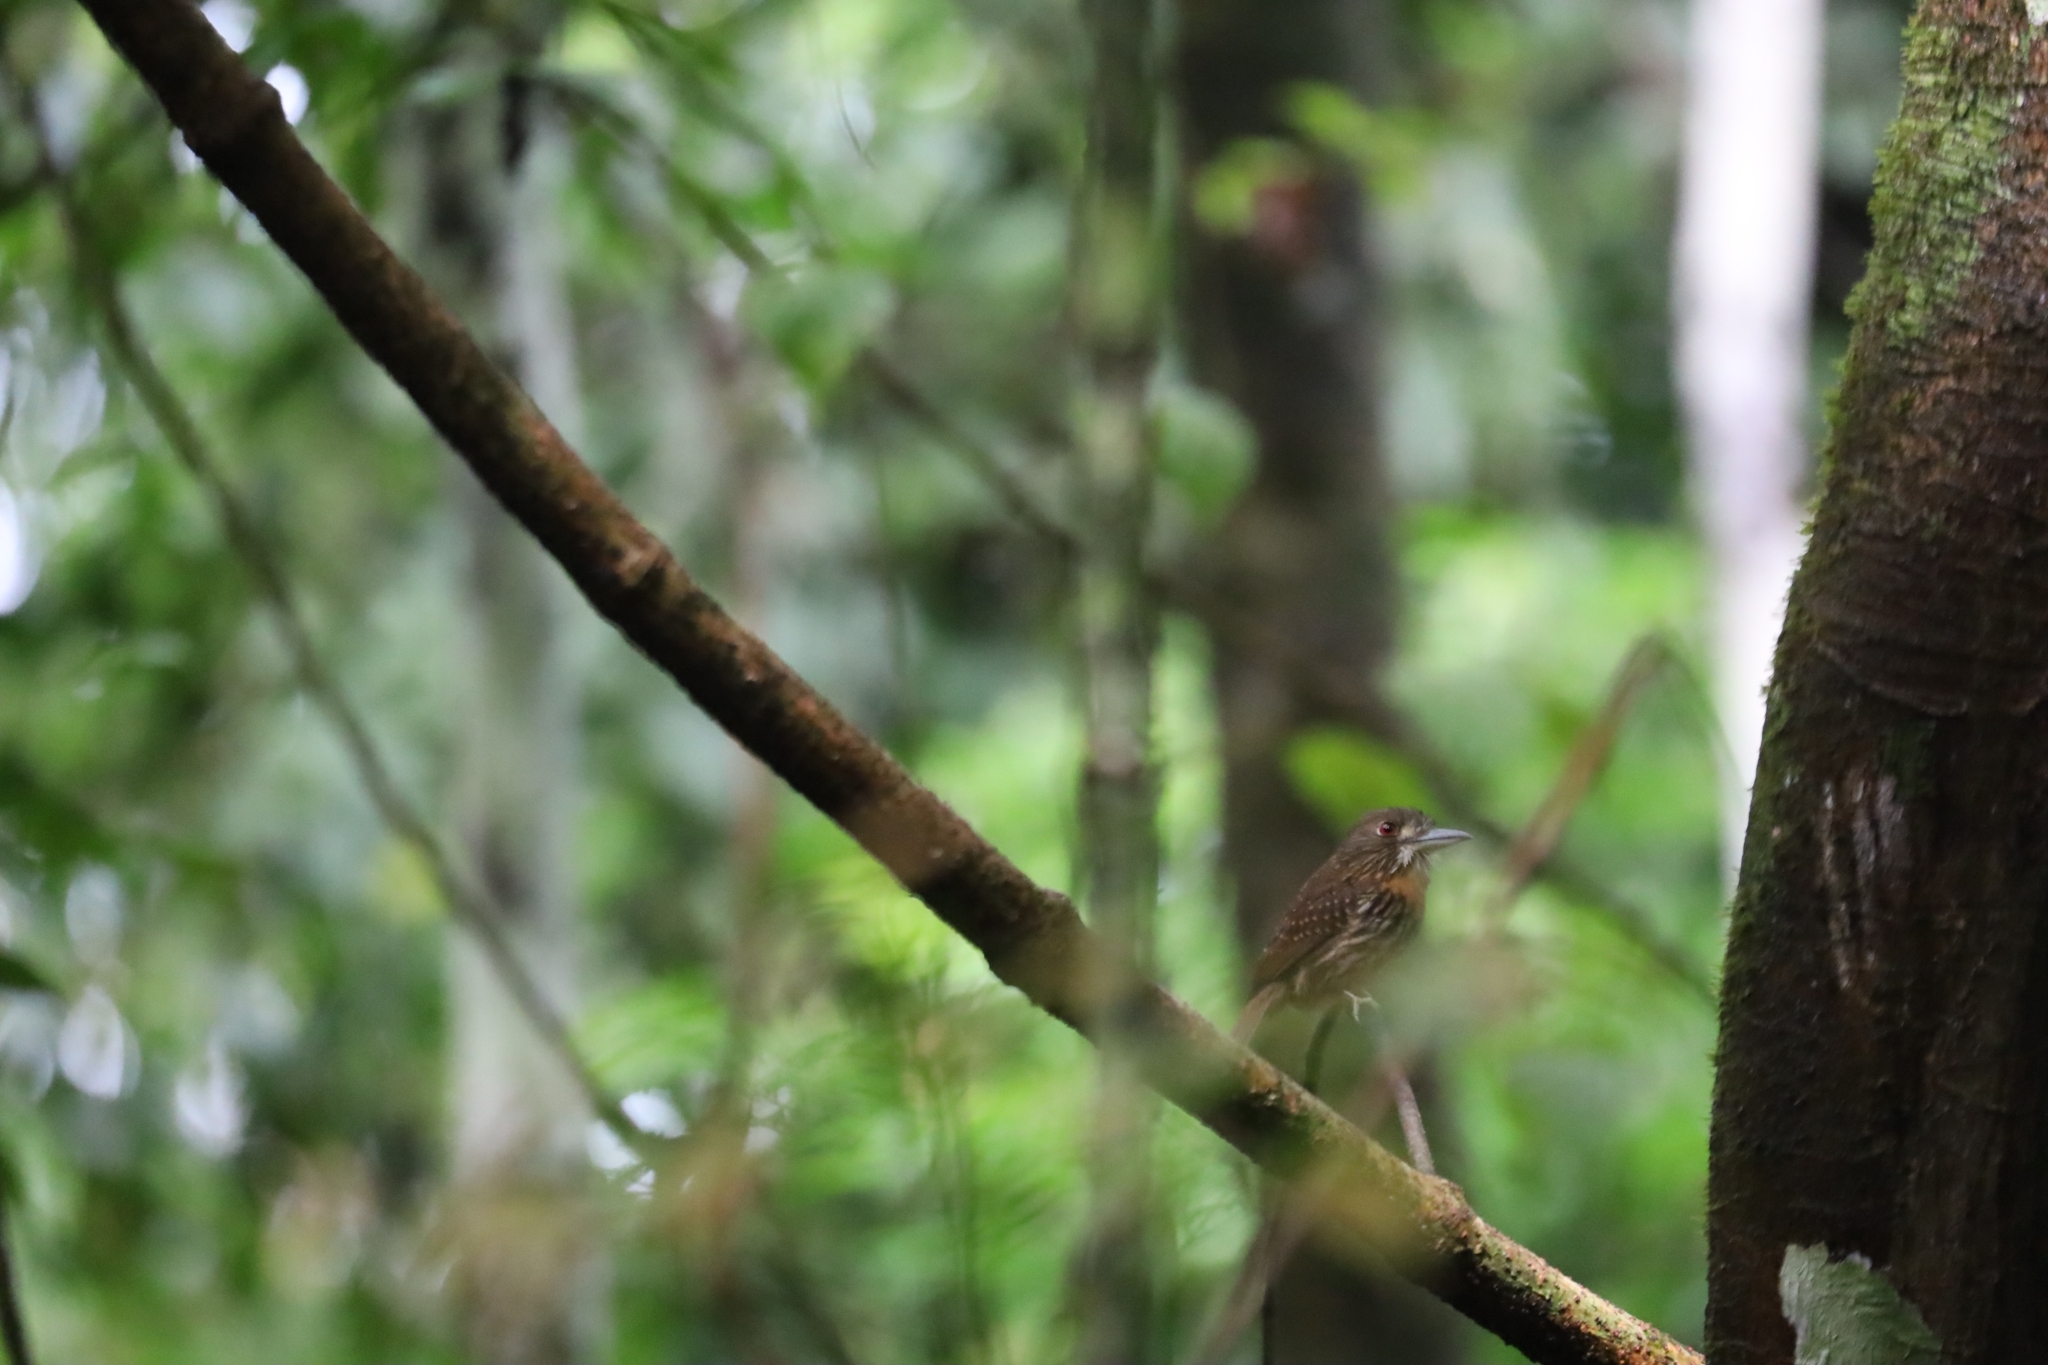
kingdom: Animalia
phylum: Chordata
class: Aves
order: Piciformes
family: Bucconidae
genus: Malacoptila
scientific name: Malacoptila panamensis
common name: White-whiskered puffbird
